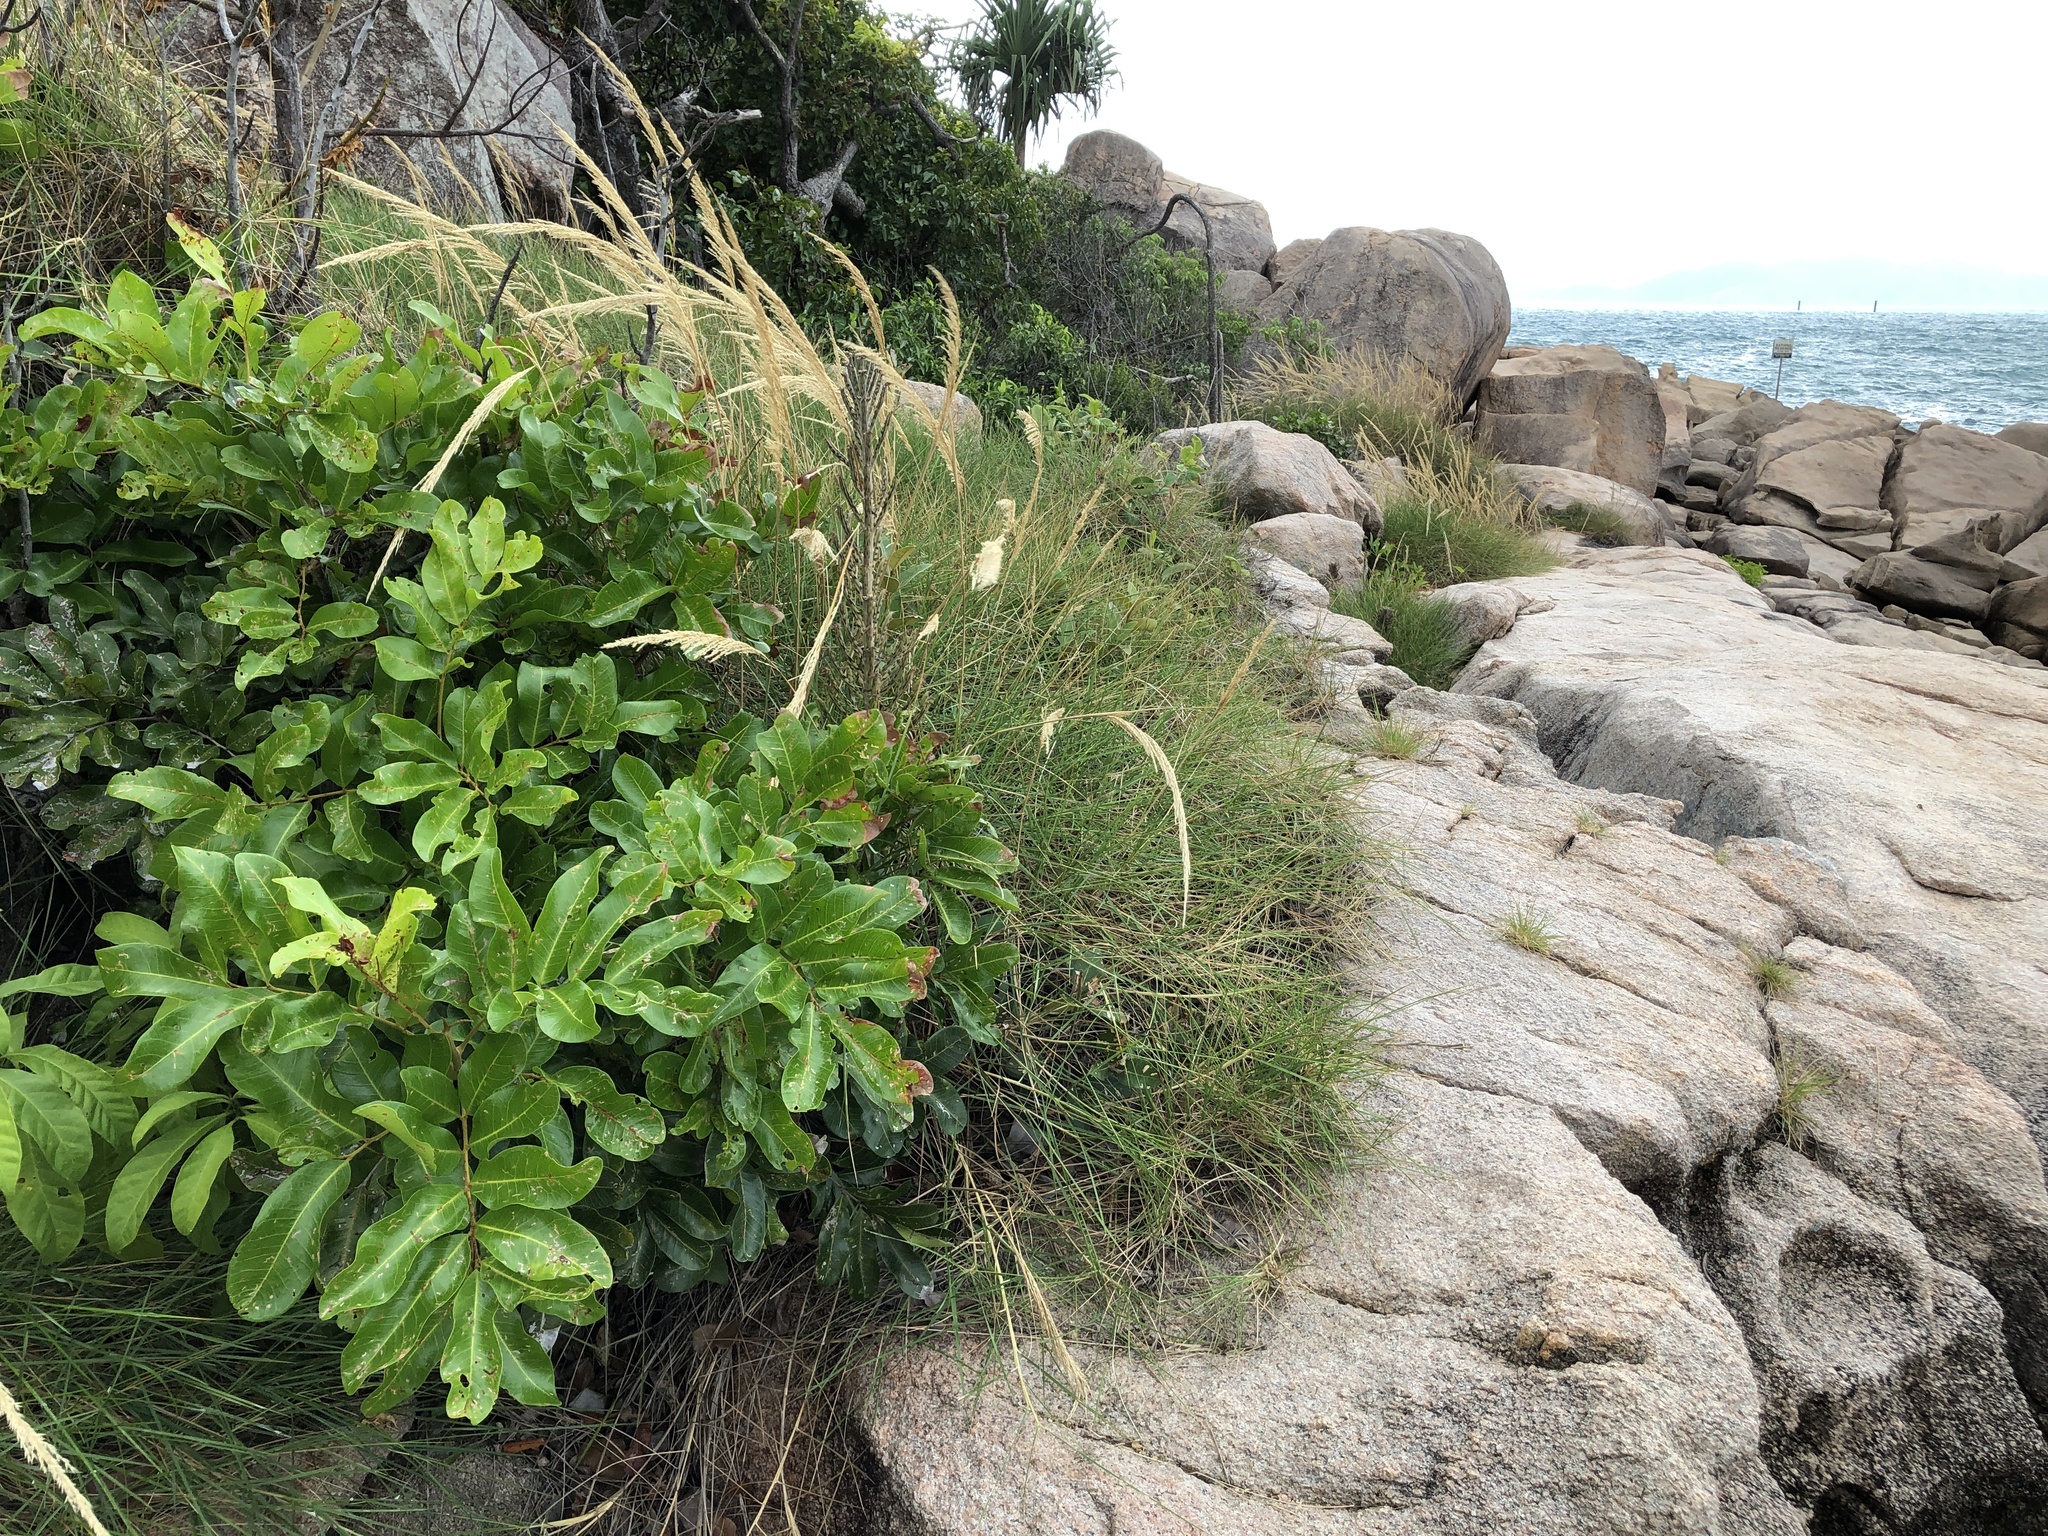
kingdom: Plantae
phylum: Tracheophyta
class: Magnoliopsida
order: Sapindales
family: Sapindaceae
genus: Cupaniopsis
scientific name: Cupaniopsis anacardioides
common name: Carrotwood
